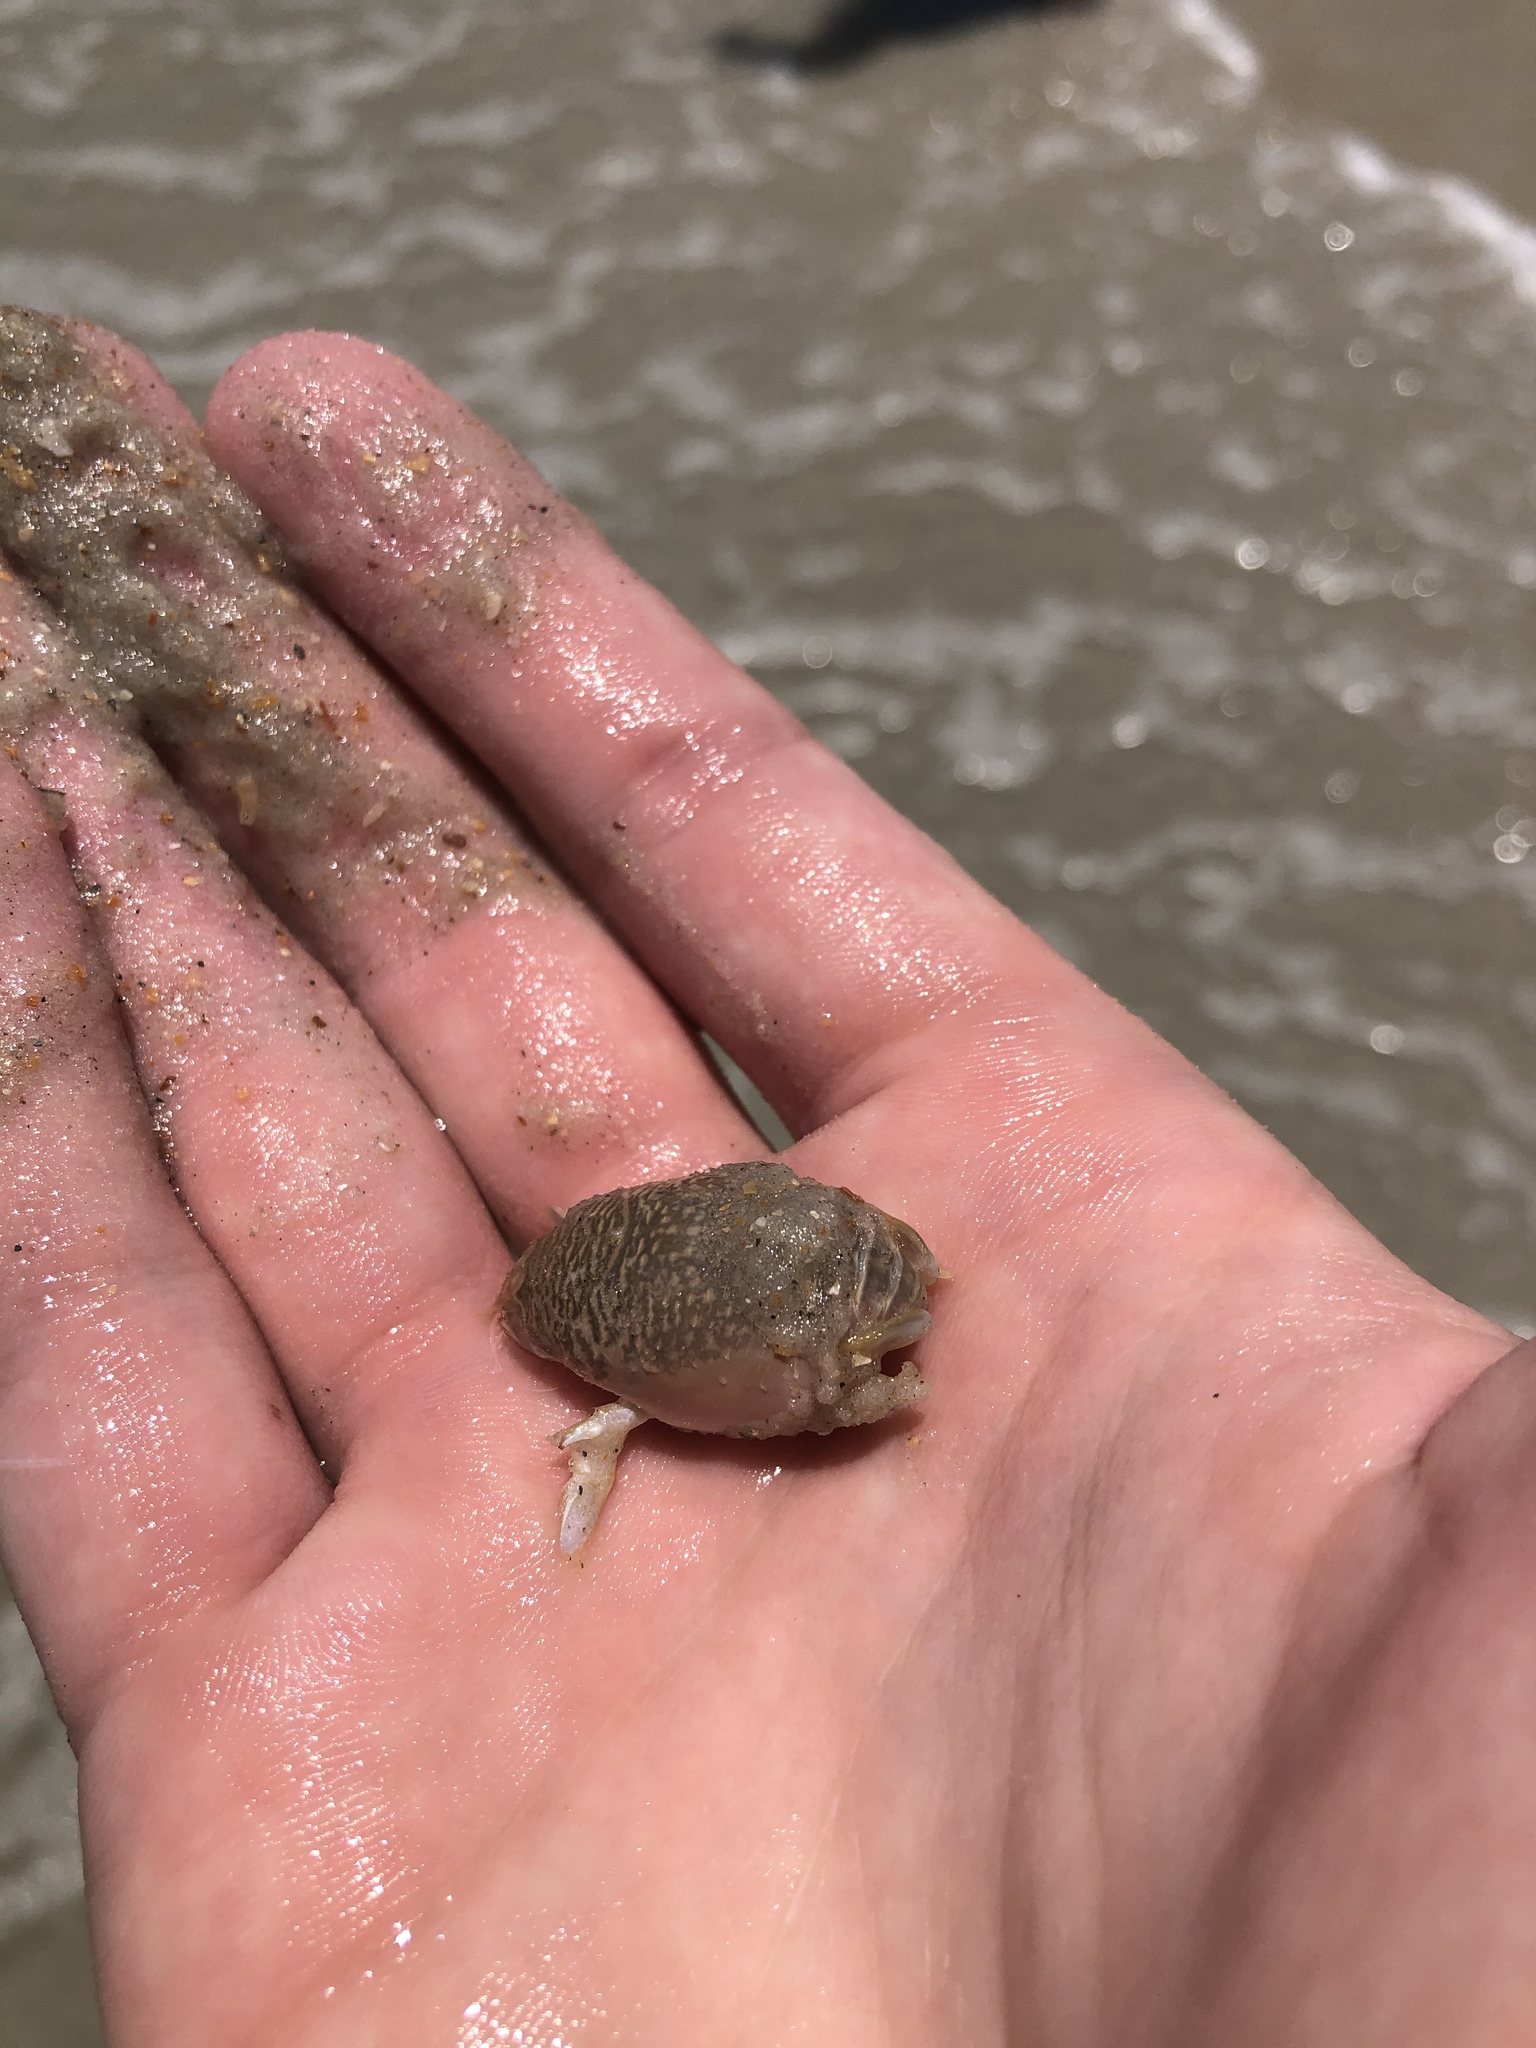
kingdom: Animalia
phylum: Arthropoda
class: Malacostraca
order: Decapoda
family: Hippidae
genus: Emerita
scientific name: Emerita talpoida
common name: Atlantic sand crab
